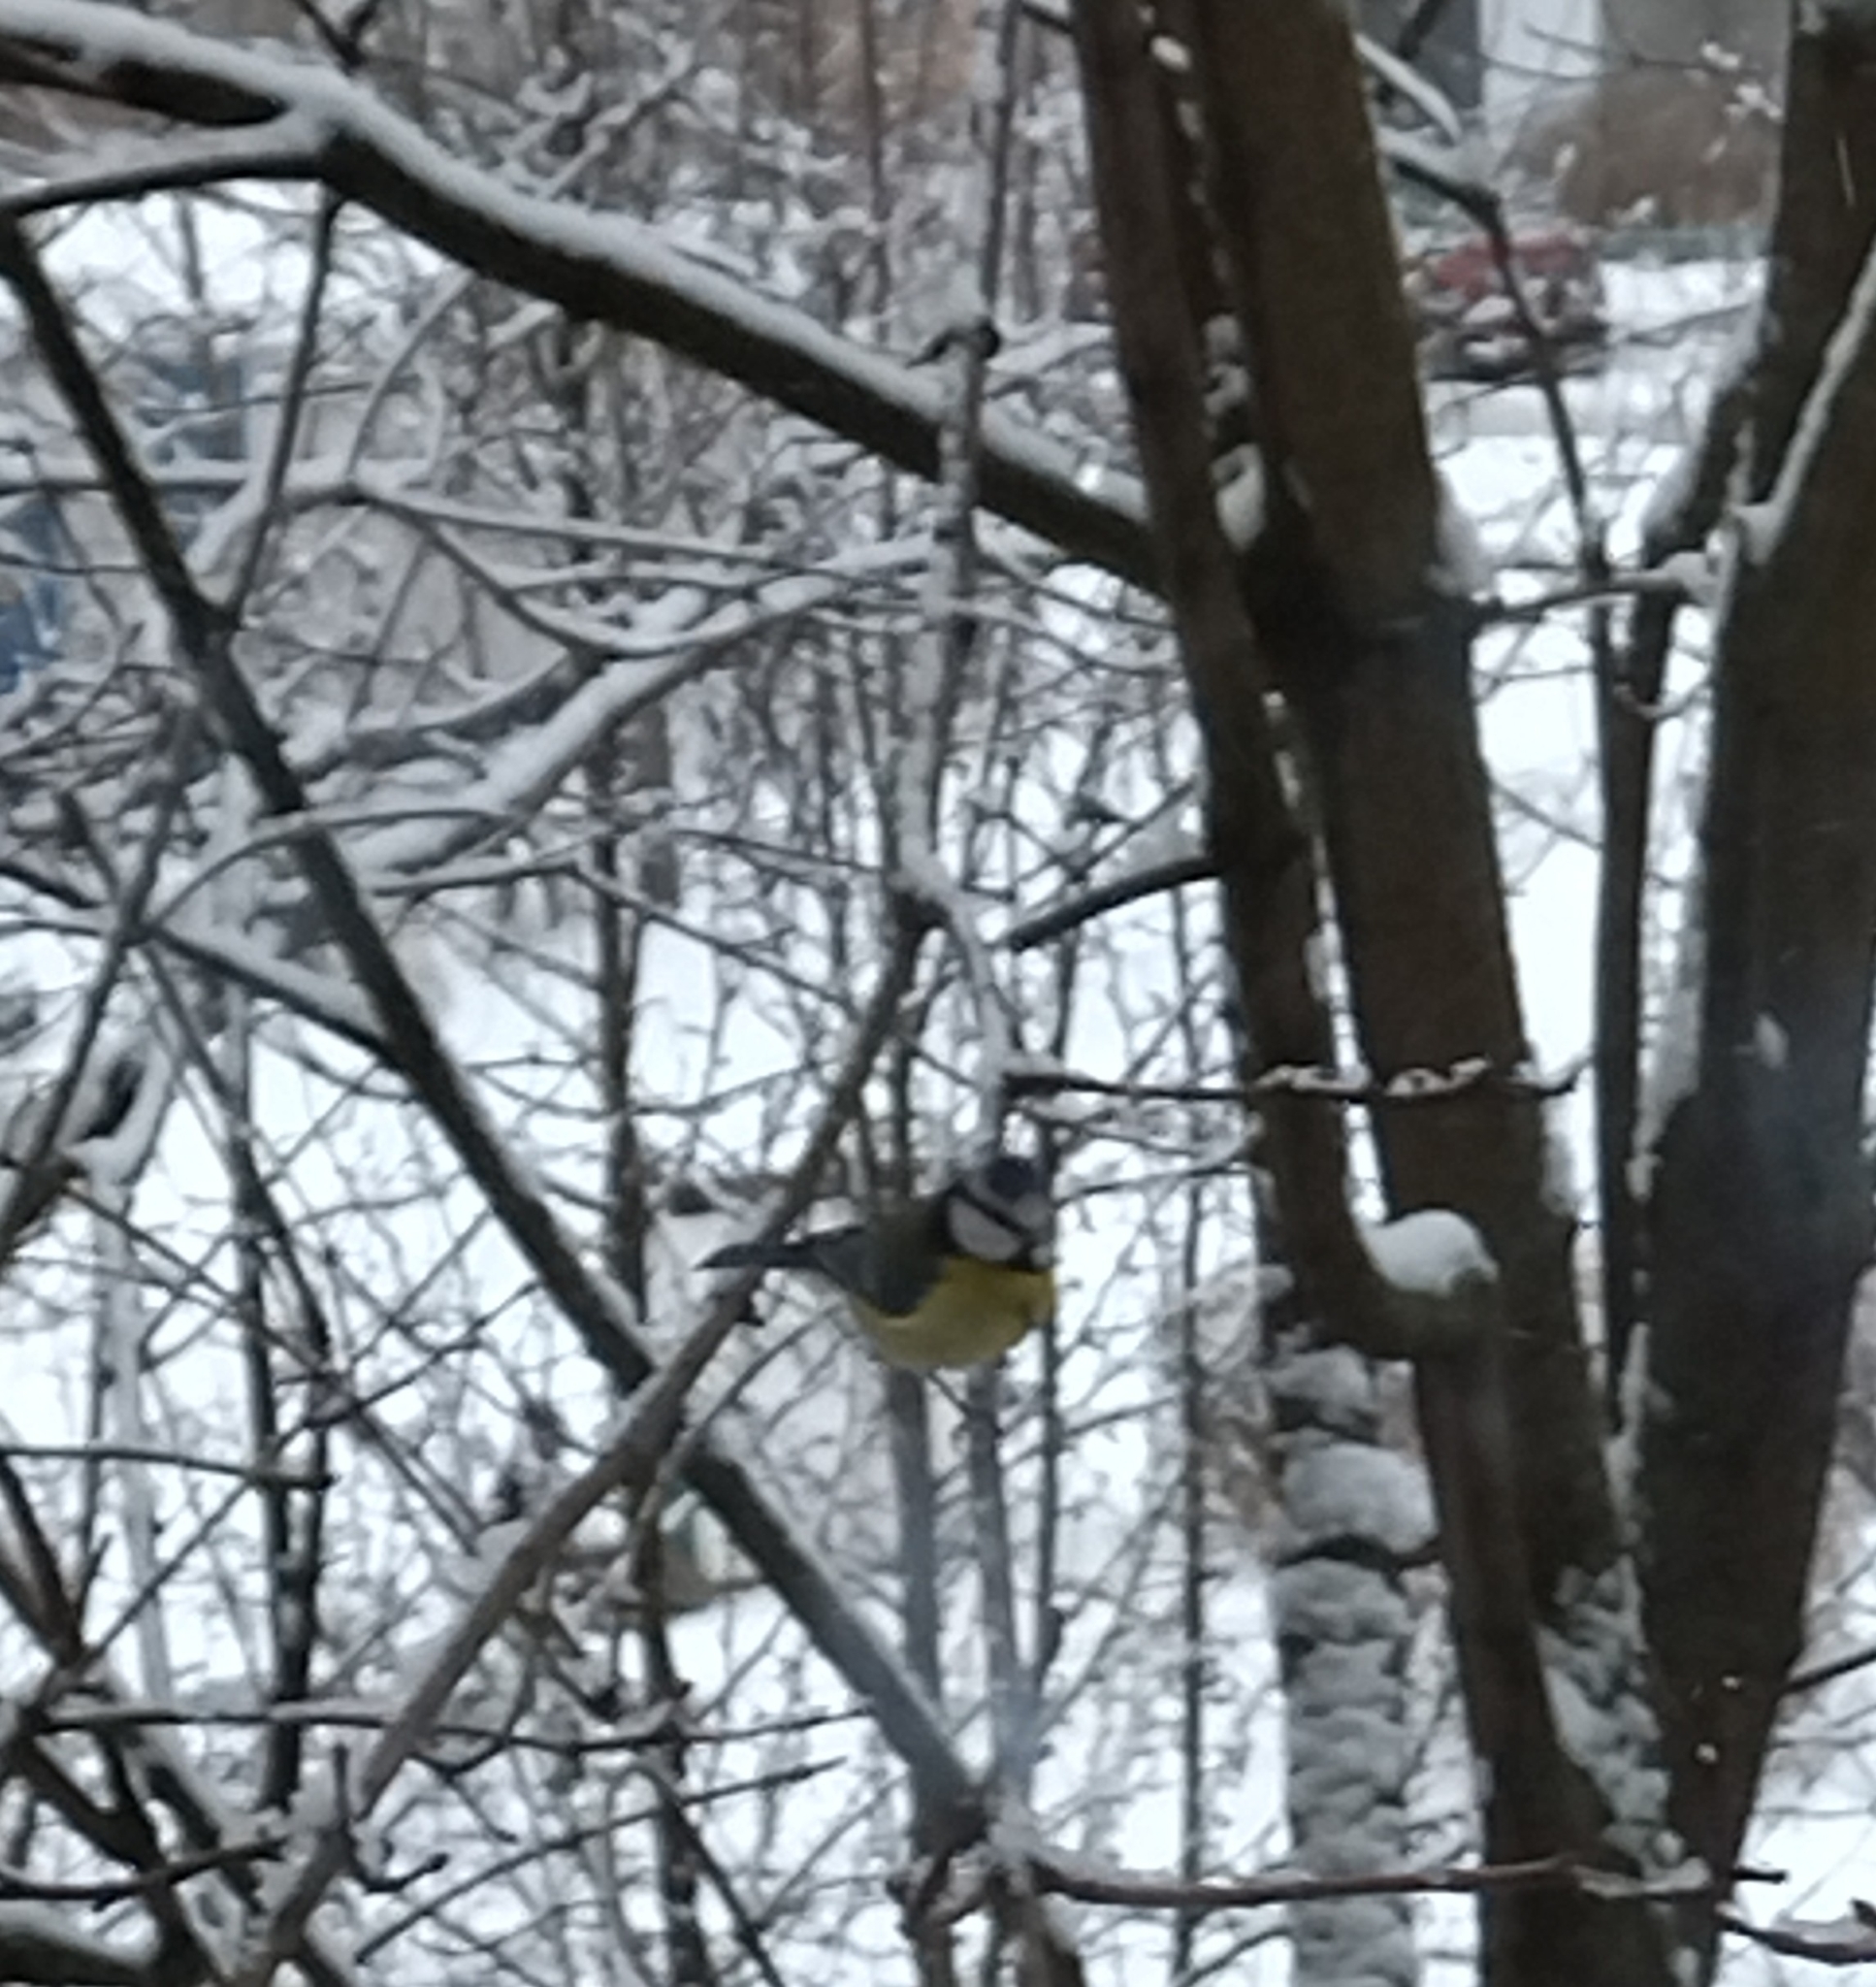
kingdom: Animalia
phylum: Chordata
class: Aves
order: Passeriformes
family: Paridae
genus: Cyanistes
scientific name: Cyanistes caeruleus
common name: Eurasian blue tit
